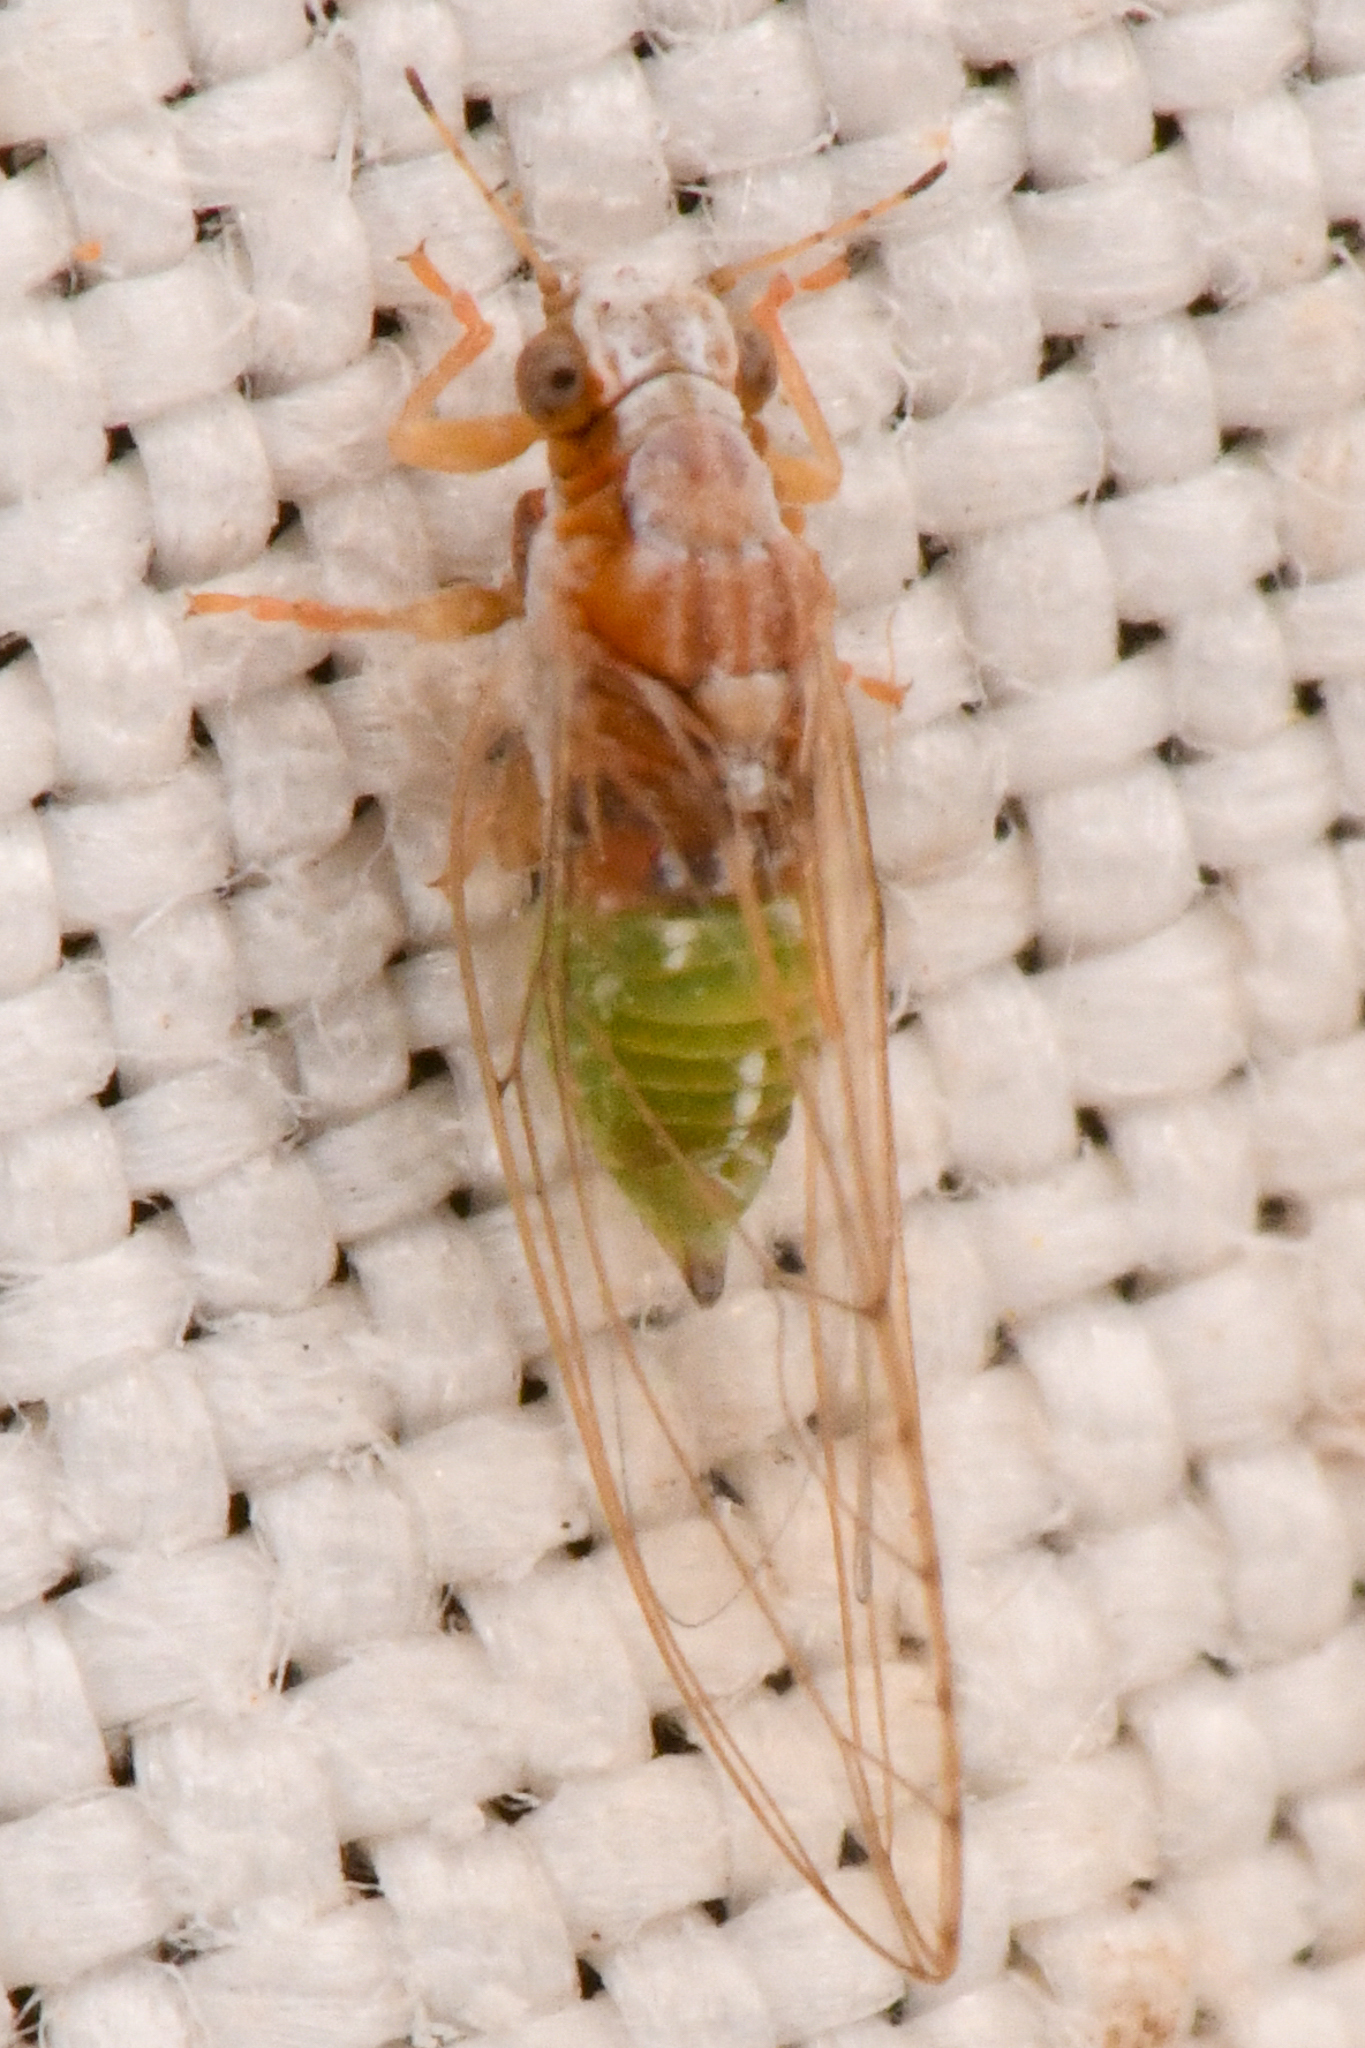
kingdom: Animalia
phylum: Arthropoda
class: Insecta
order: Hemiptera
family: Triozidae
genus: Trioza
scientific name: Trioza bakeri
